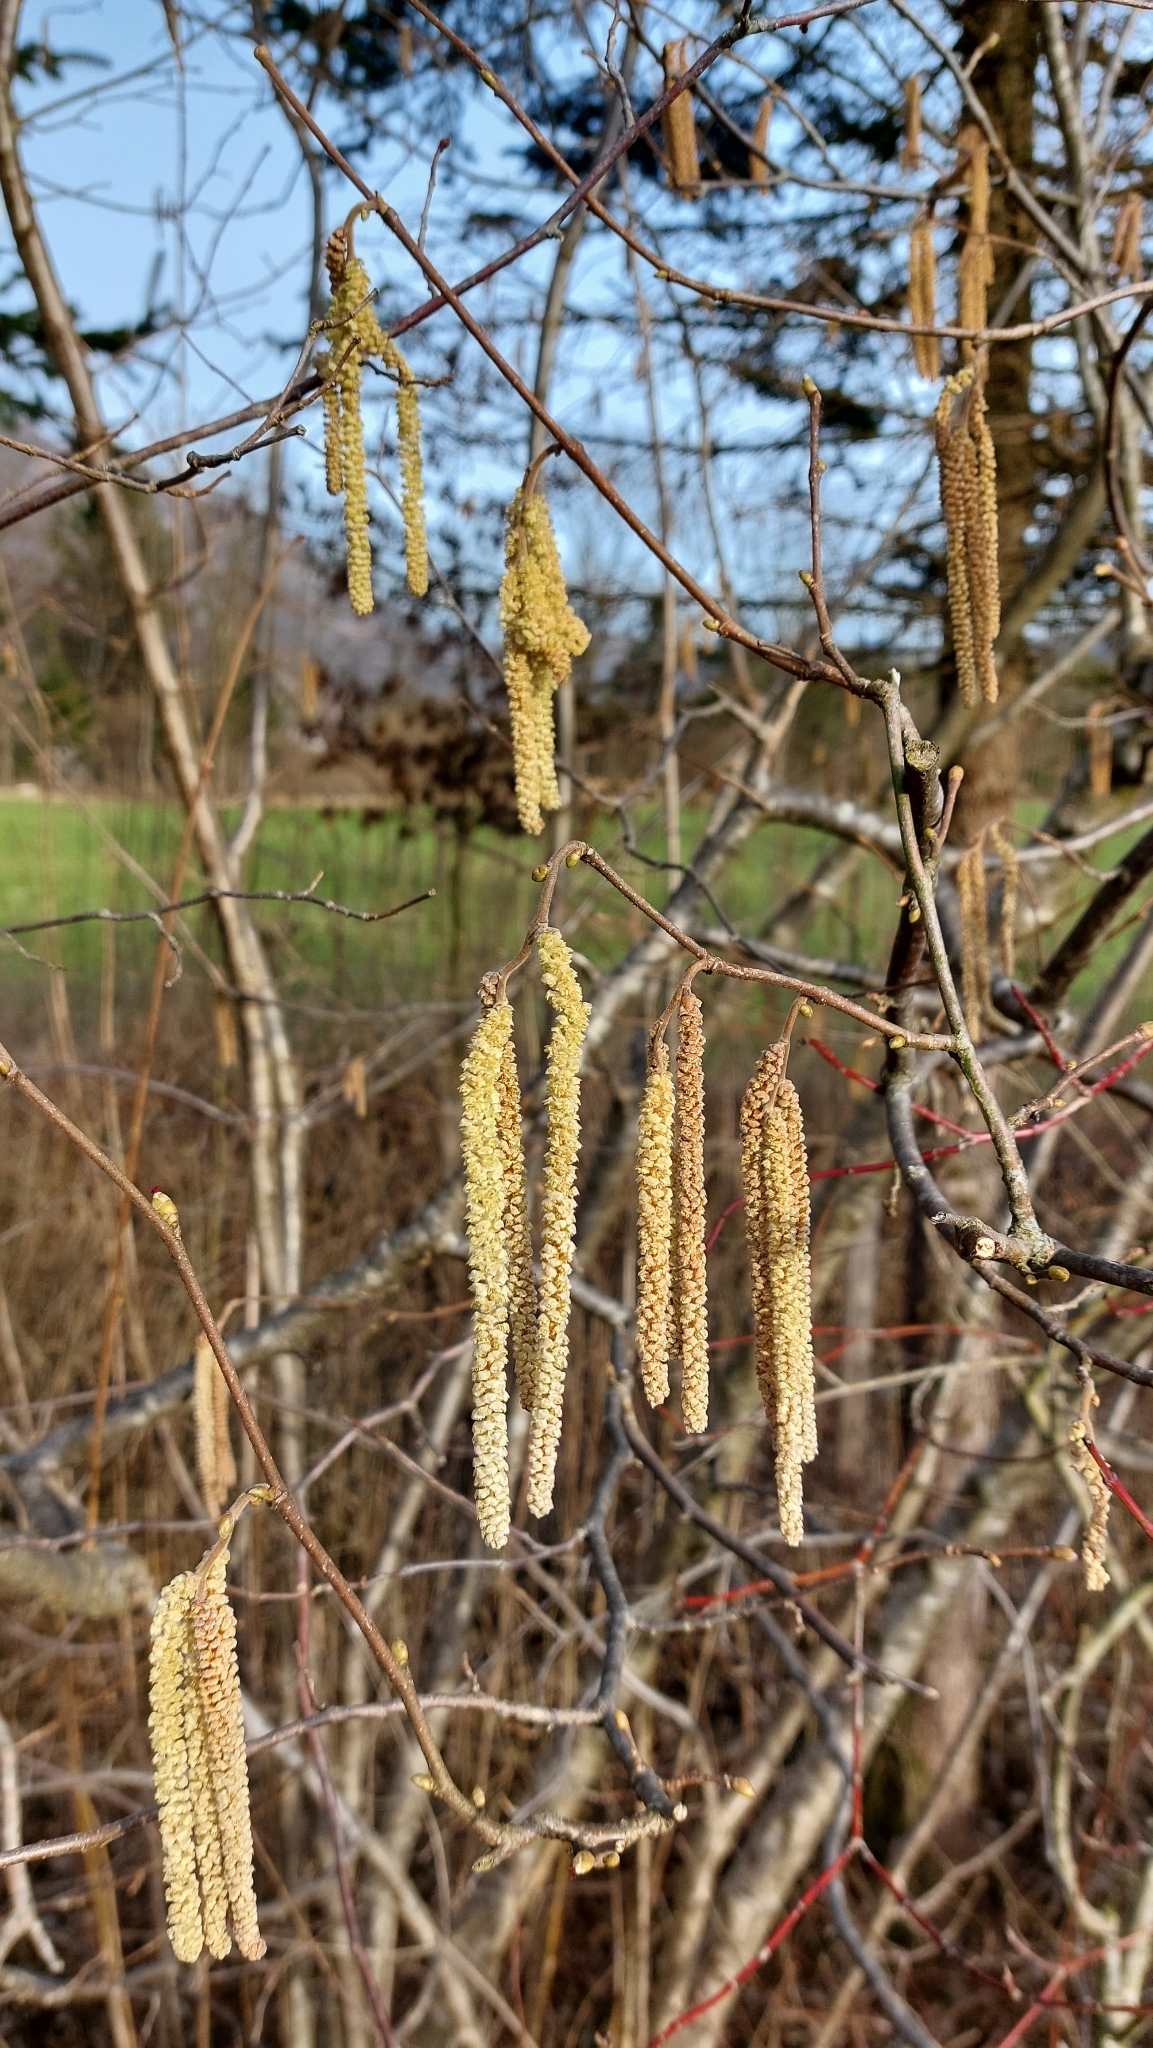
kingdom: Plantae
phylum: Tracheophyta
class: Magnoliopsida
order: Fagales
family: Betulaceae
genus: Corylus
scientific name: Corylus avellana
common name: European hazel
